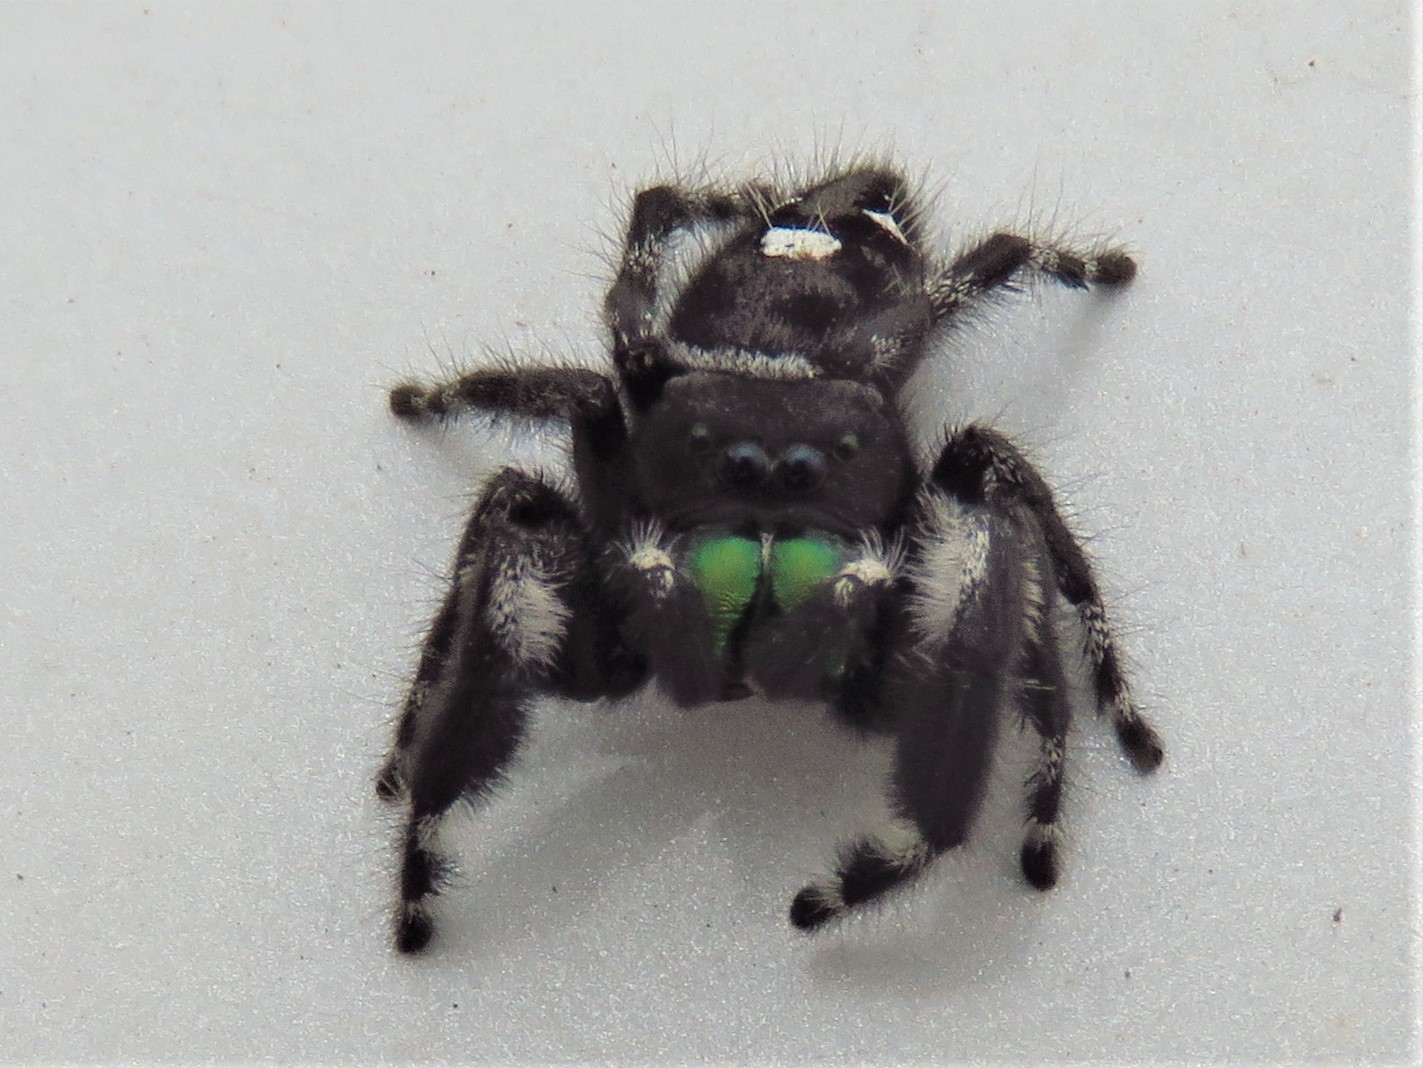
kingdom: Animalia
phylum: Arthropoda
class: Arachnida
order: Araneae
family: Salticidae
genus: Phidippus
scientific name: Phidippus audax
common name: Bold jumper
